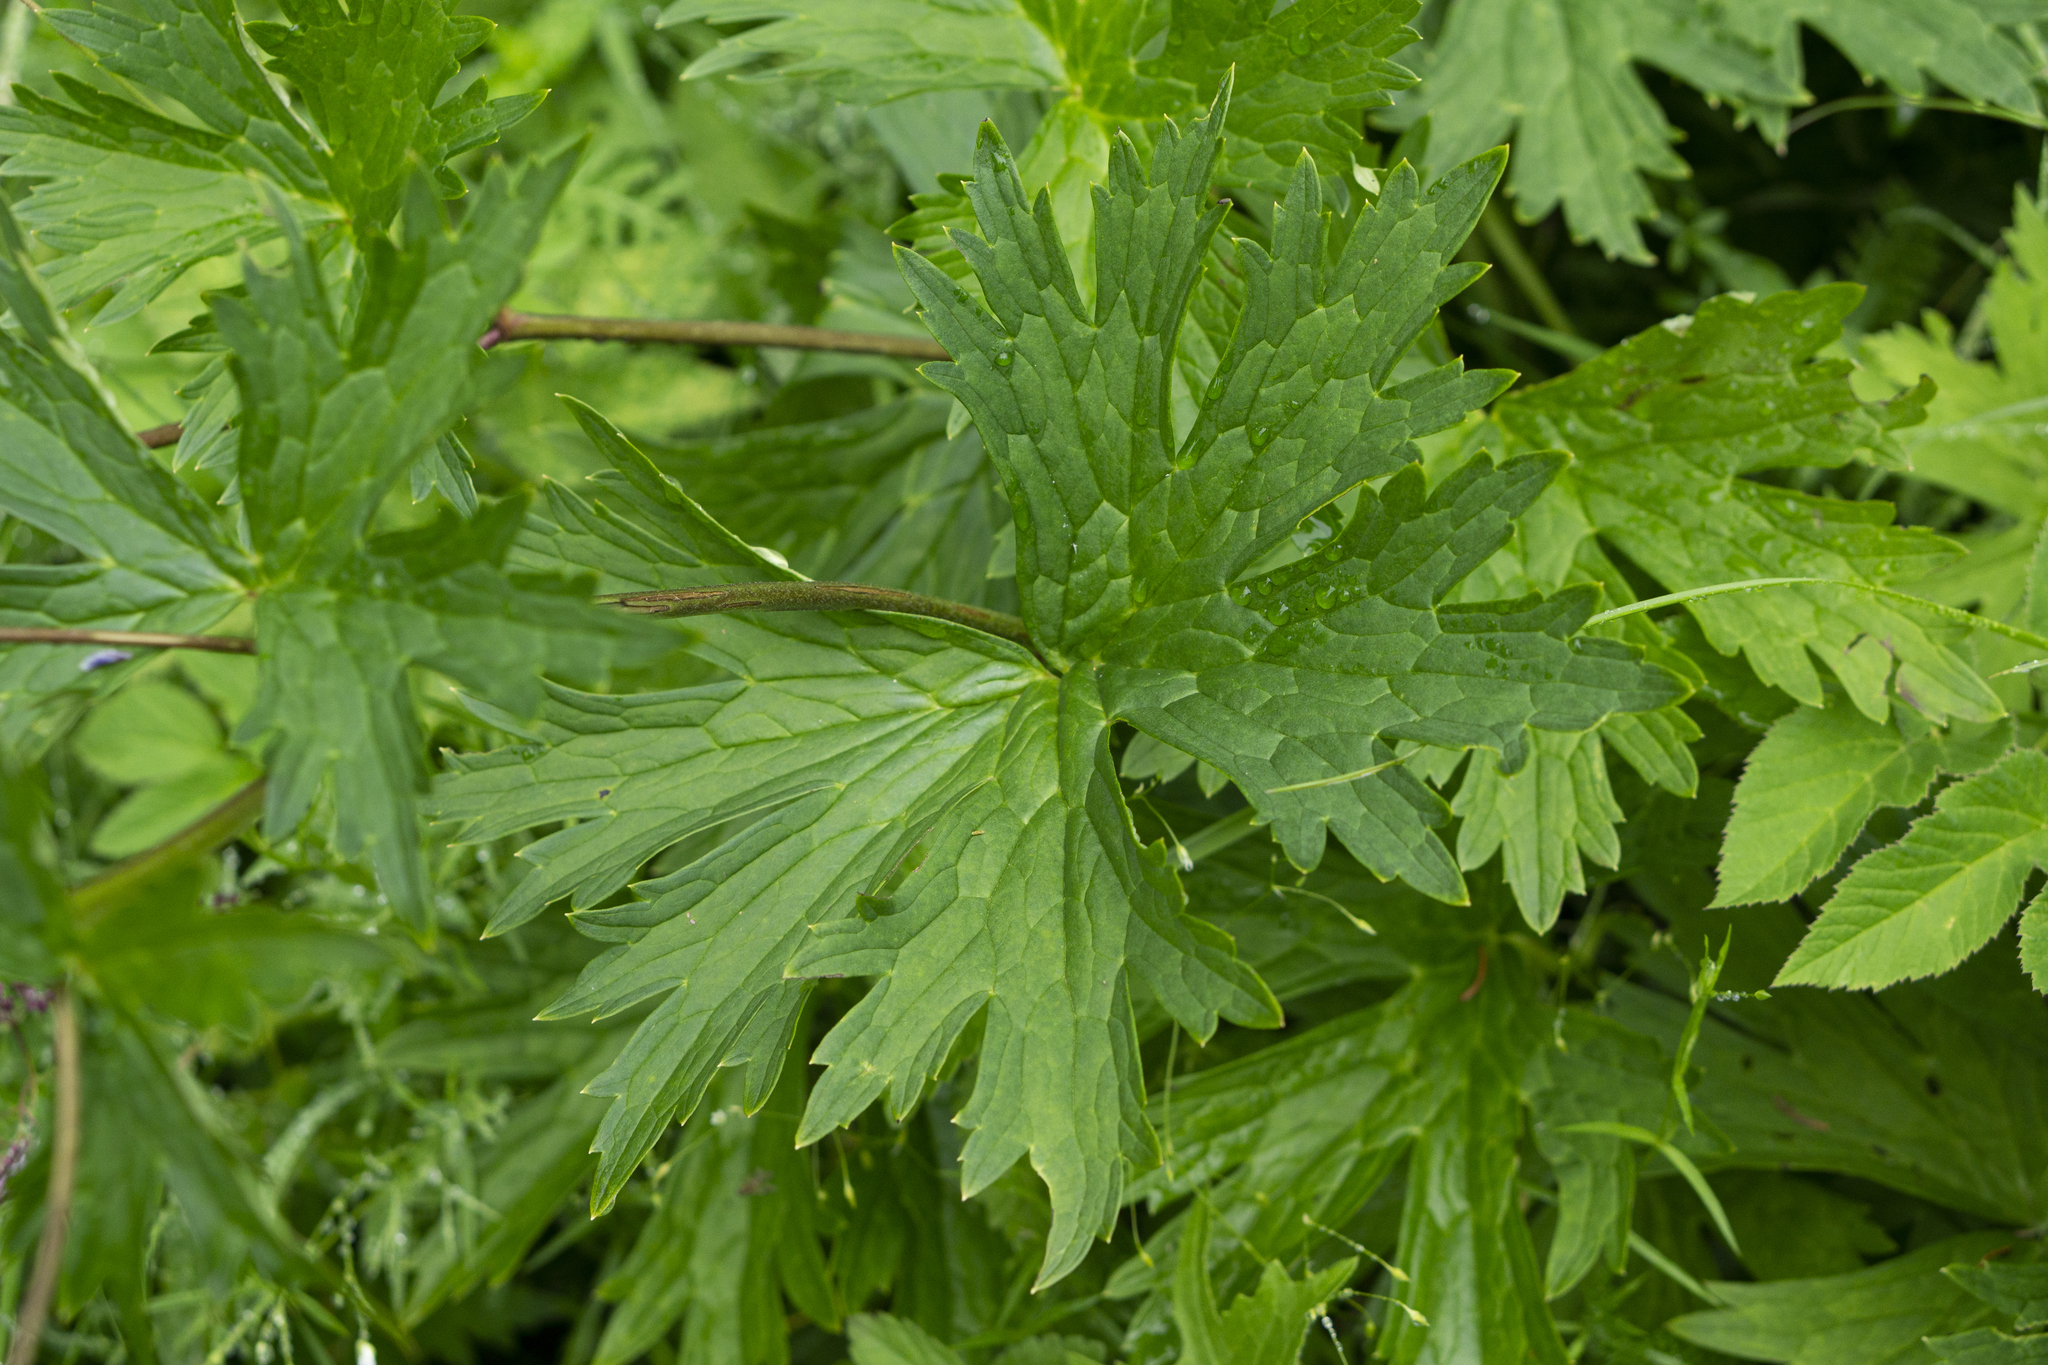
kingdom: Plantae
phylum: Tracheophyta
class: Magnoliopsida
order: Ranunculales
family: Ranunculaceae
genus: Aconitum
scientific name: Aconitum lycoctonum
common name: Wolf's-bane
